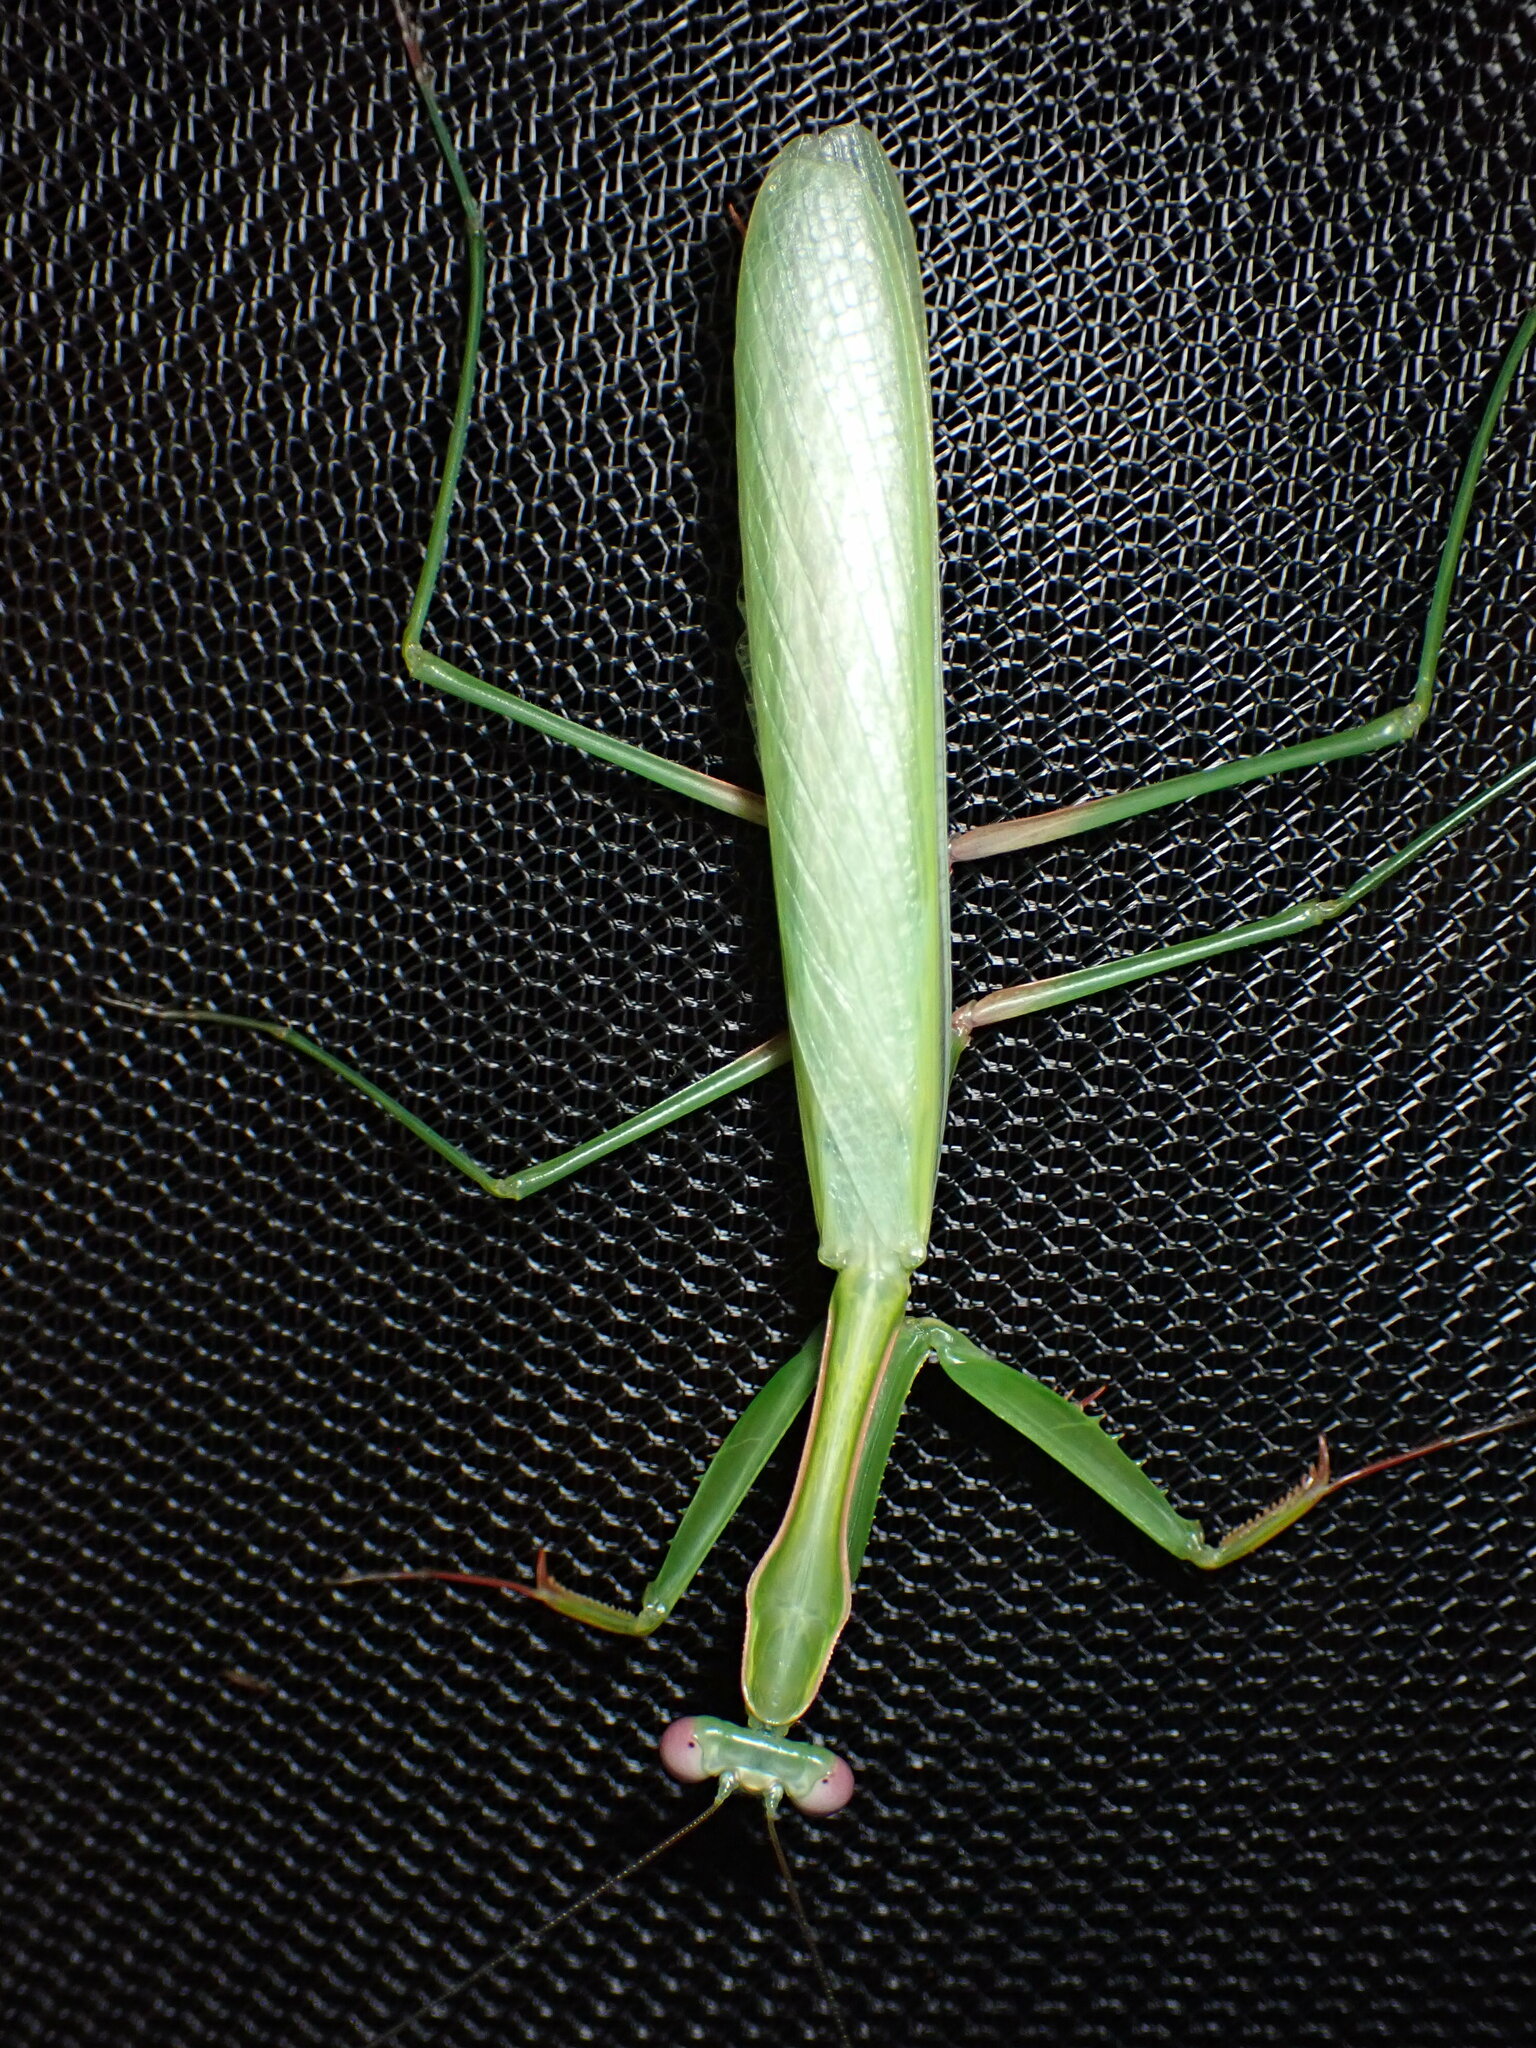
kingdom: Animalia
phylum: Arthropoda
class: Insecta
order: Mantodea
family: Mantidae
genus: Pseudomantis
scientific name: Pseudomantis albofimbriata
